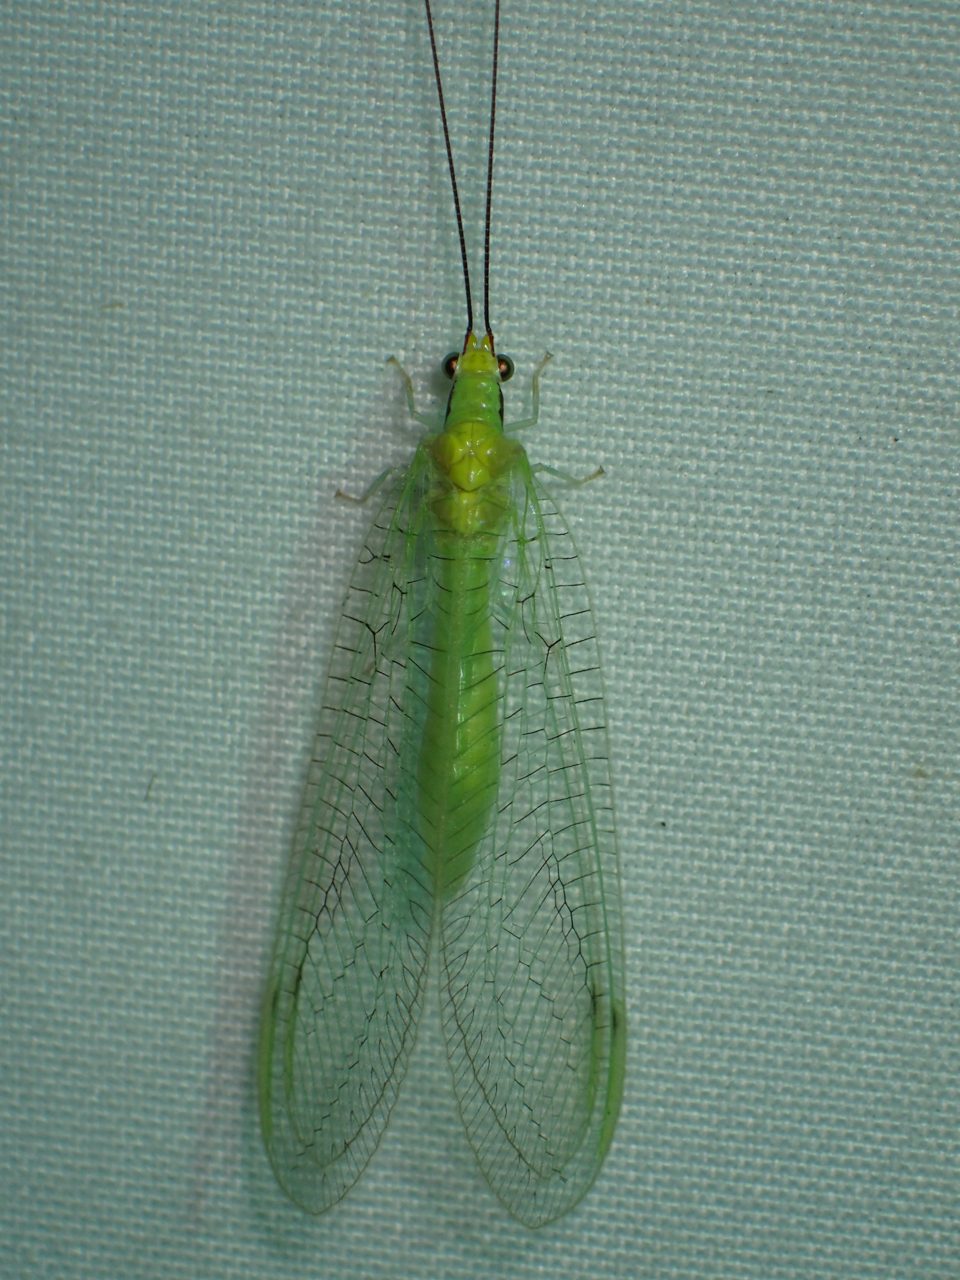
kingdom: Animalia
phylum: Arthropoda
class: Insecta
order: Neuroptera
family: Chrysopidae
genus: Leucochrysa
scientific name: Leucochrysa pavida
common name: Lichen-carrying green lacewing
